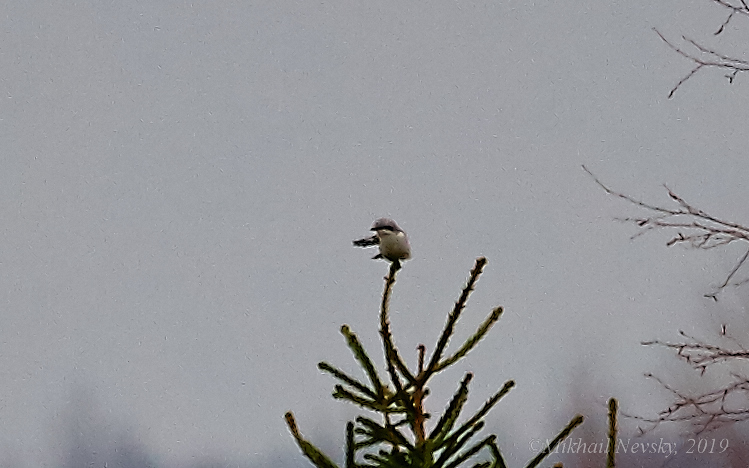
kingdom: Animalia
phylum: Chordata
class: Aves
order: Passeriformes
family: Laniidae
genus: Lanius
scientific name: Lanius excubitor
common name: Great grey shrike
